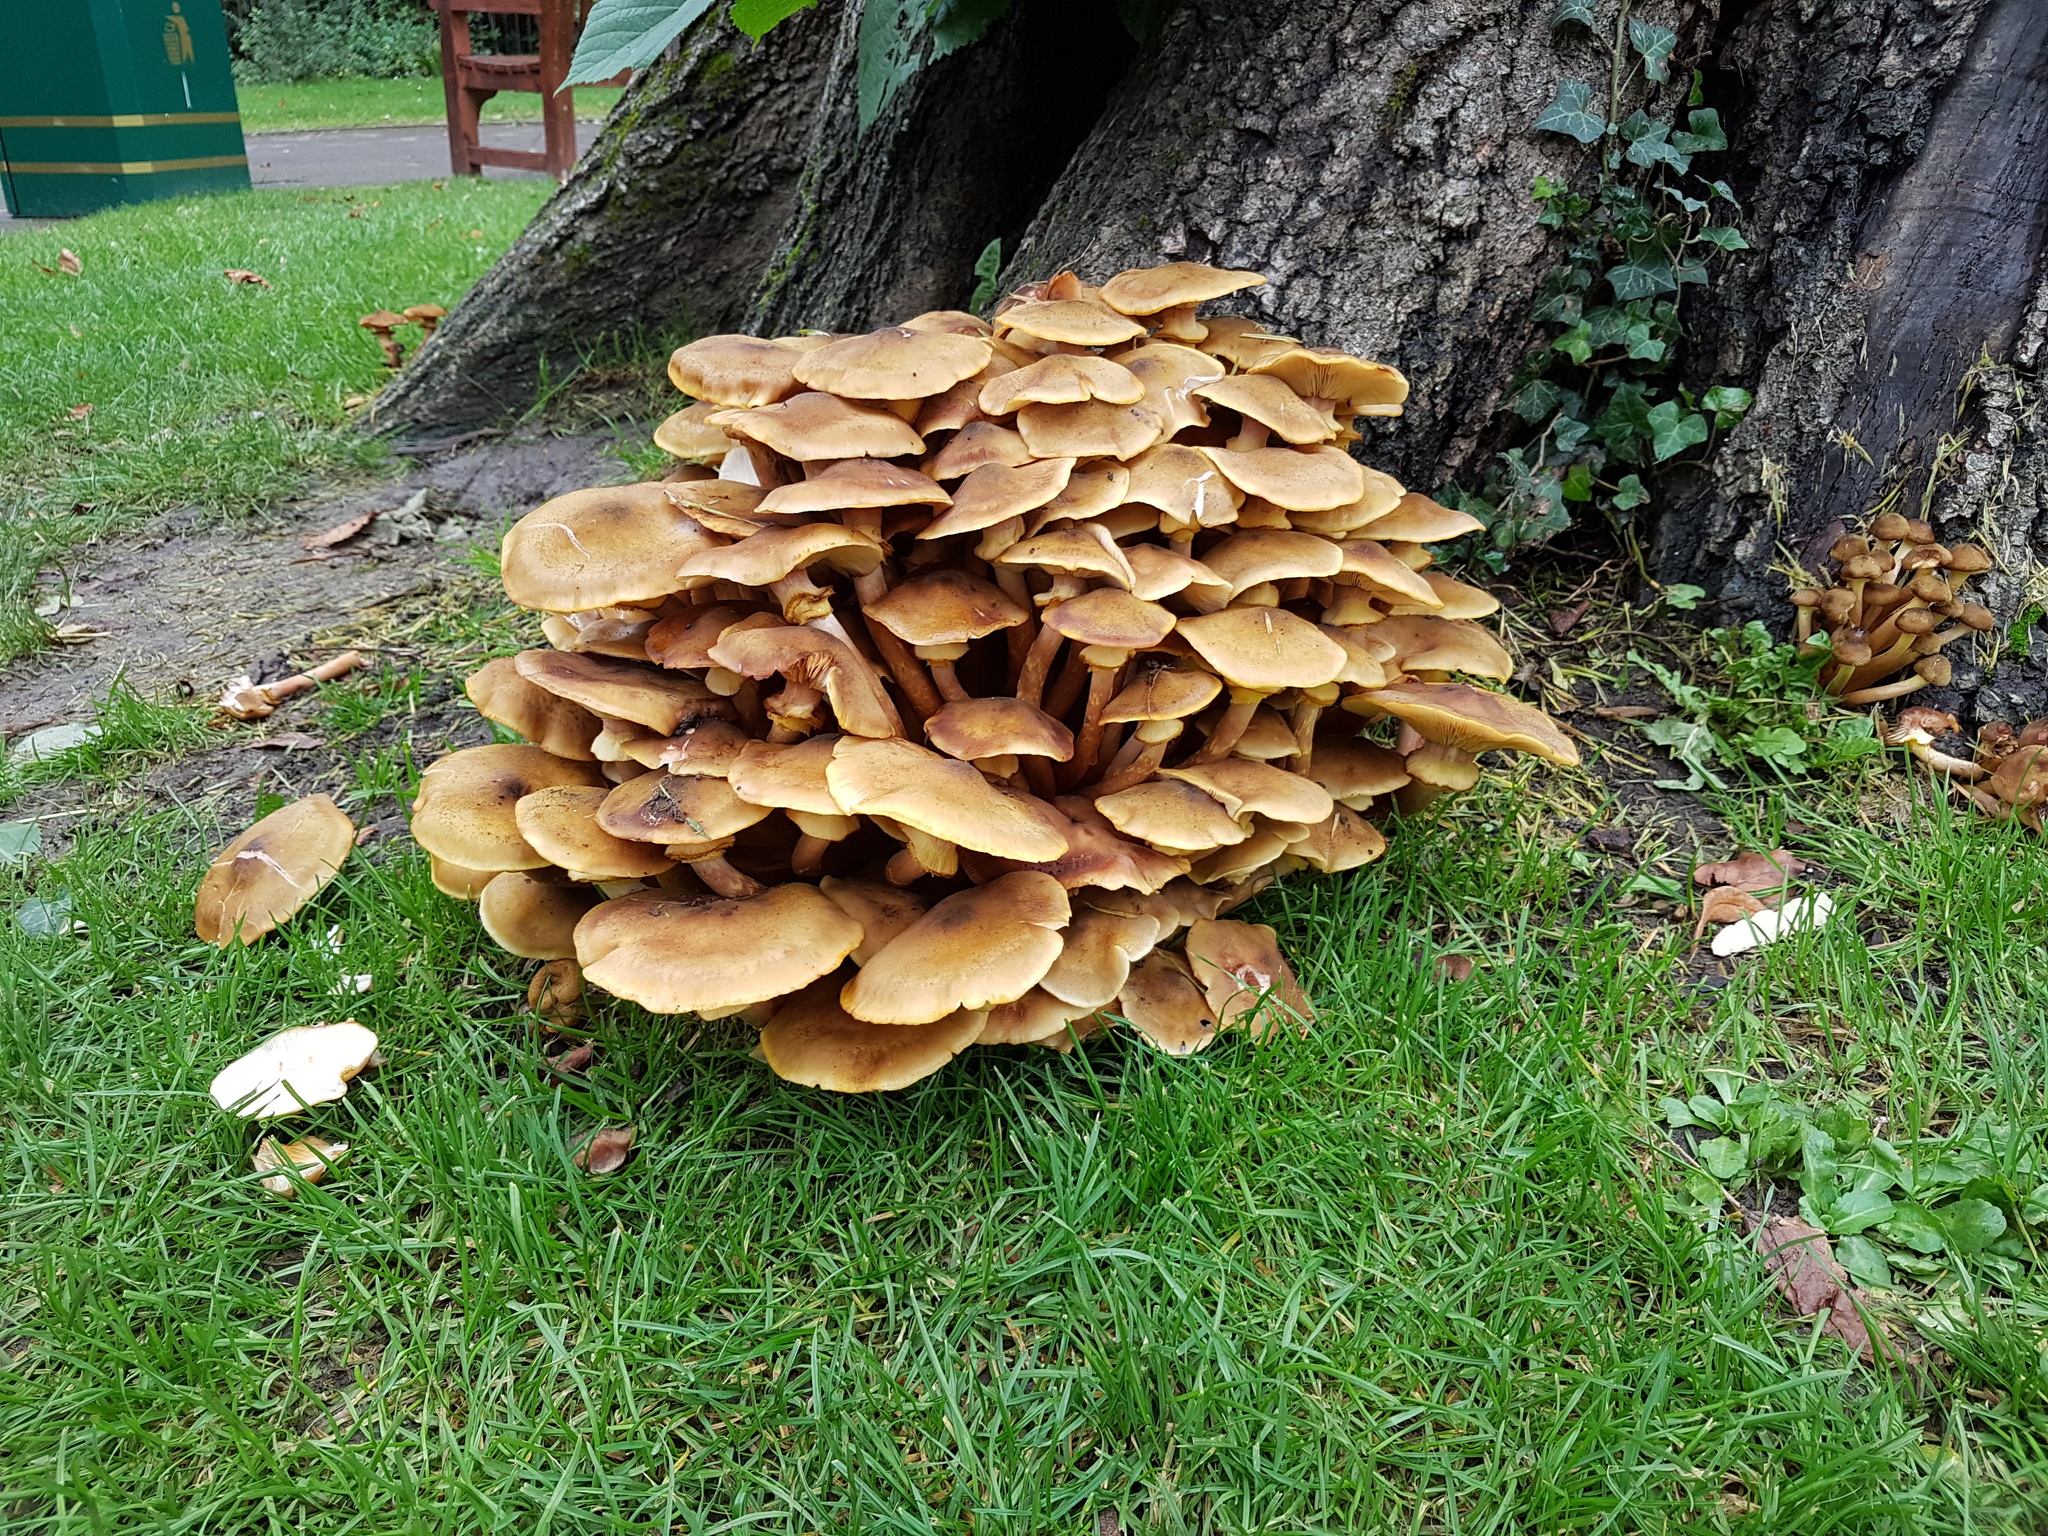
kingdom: Fungi
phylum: Basidiomycota
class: Agaricomycetes
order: Agaricales
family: Physalacriaceae
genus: Armillaria
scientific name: Armillaria mellea
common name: Honey fungus
